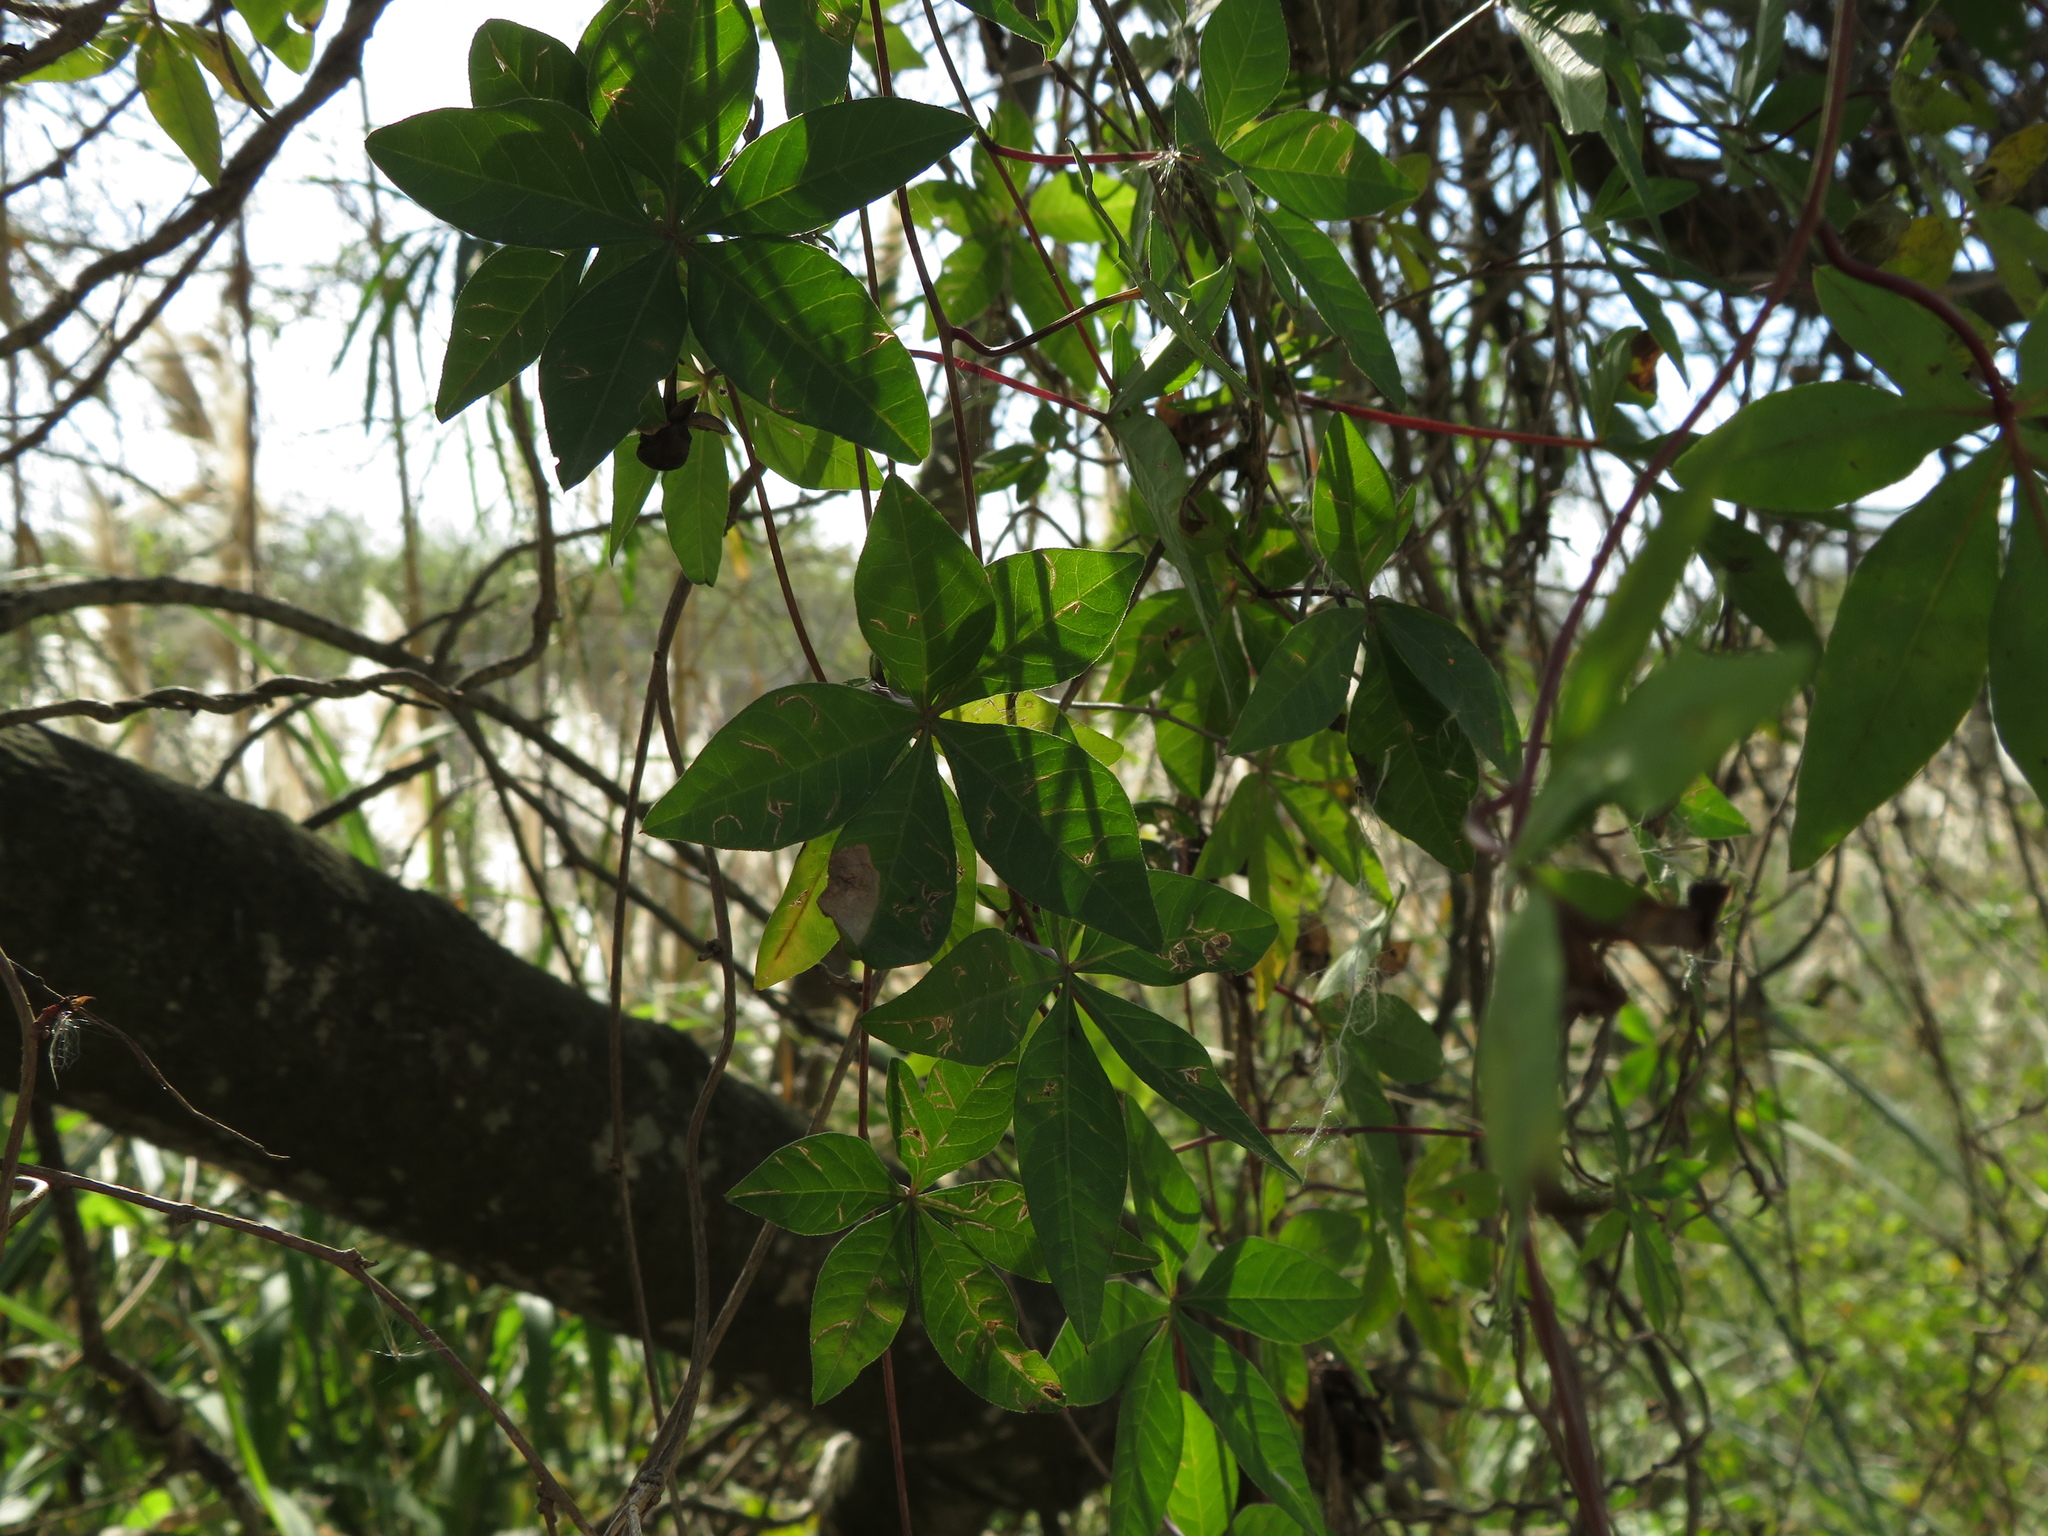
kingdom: Plantae
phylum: Tracheophyta
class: Magnoliopsida
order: Solanales
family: Convolvulaceae
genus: Ipomoea
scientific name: Ipomoea cairica
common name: Mile a minute vine
